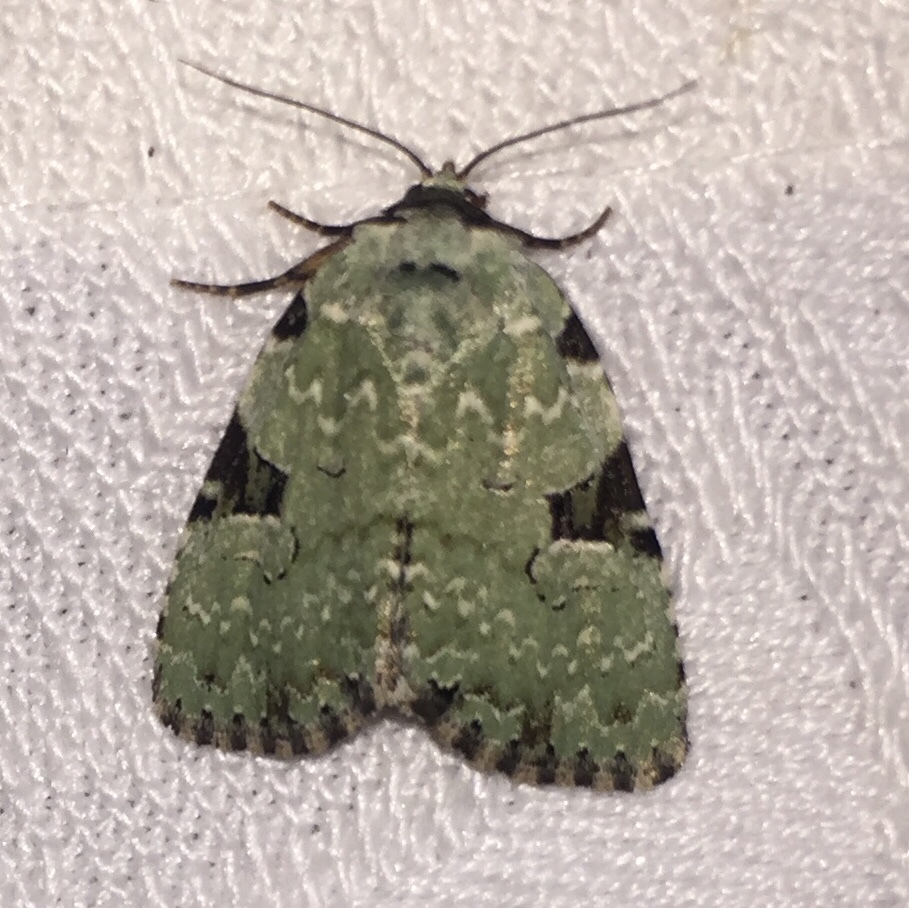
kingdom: Animalia
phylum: Arthropoda
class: Insecta
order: Lepidoptera
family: Noctuidae
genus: Leuconycta
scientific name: Leuconycta diphteroides
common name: Green leuconycta moth
